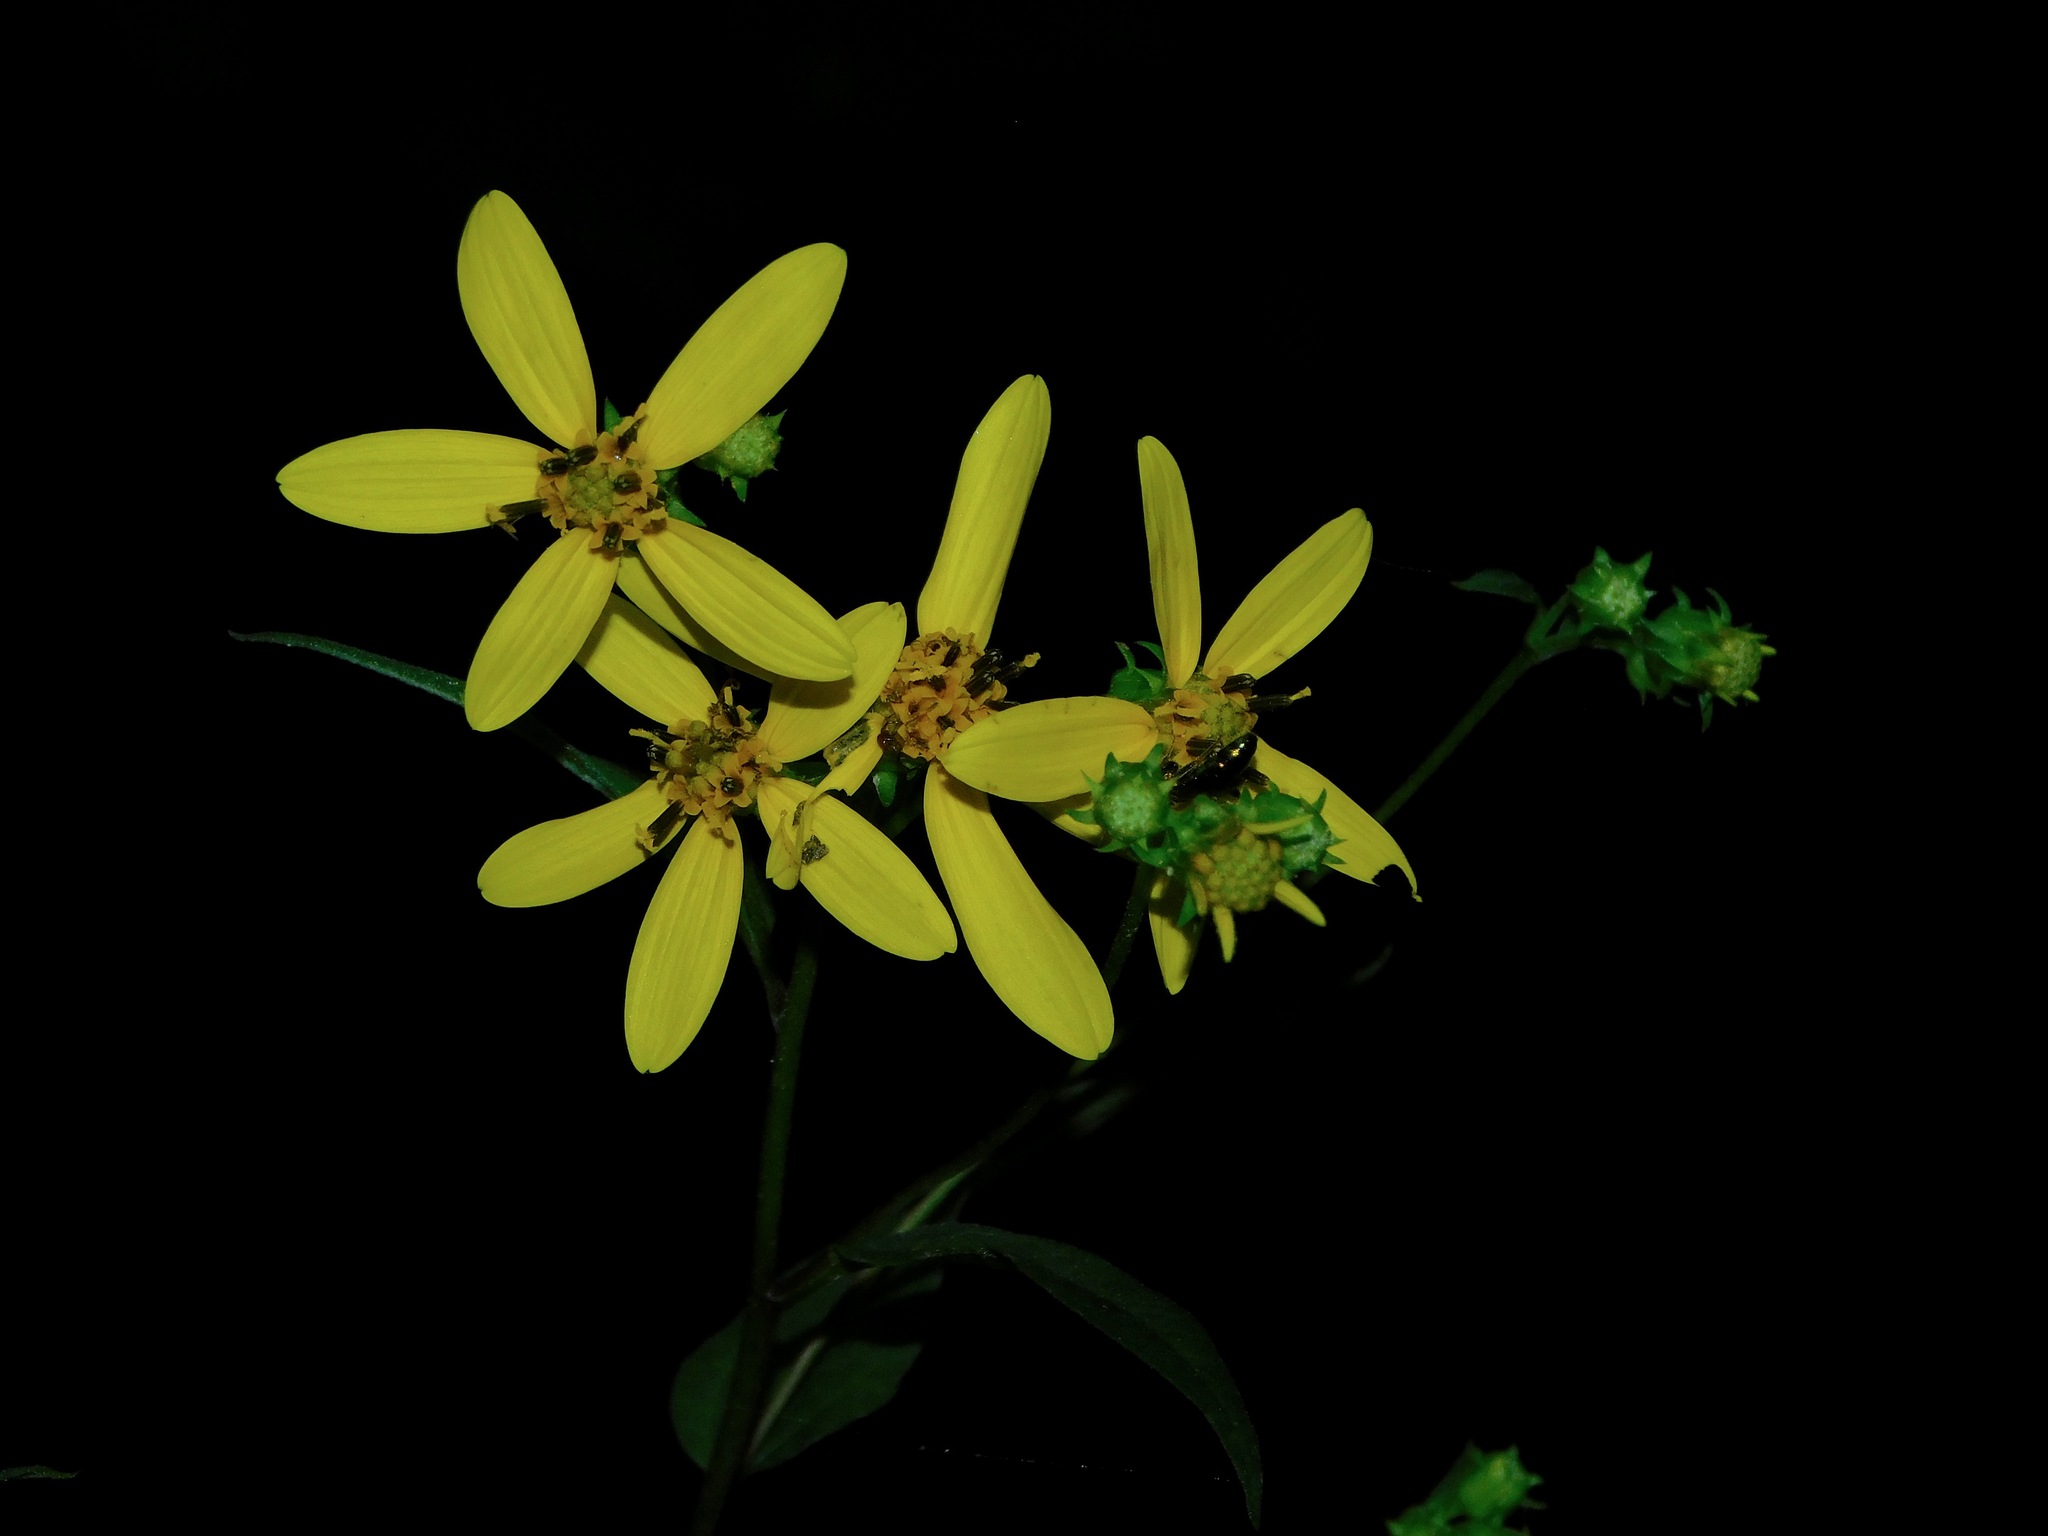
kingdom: Plantae
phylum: Tracheophyta
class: Magnoliopsida
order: Asterales
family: Asteraceae
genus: Helianthus
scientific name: Helianthus microcephalus
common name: Woodland sunflower
